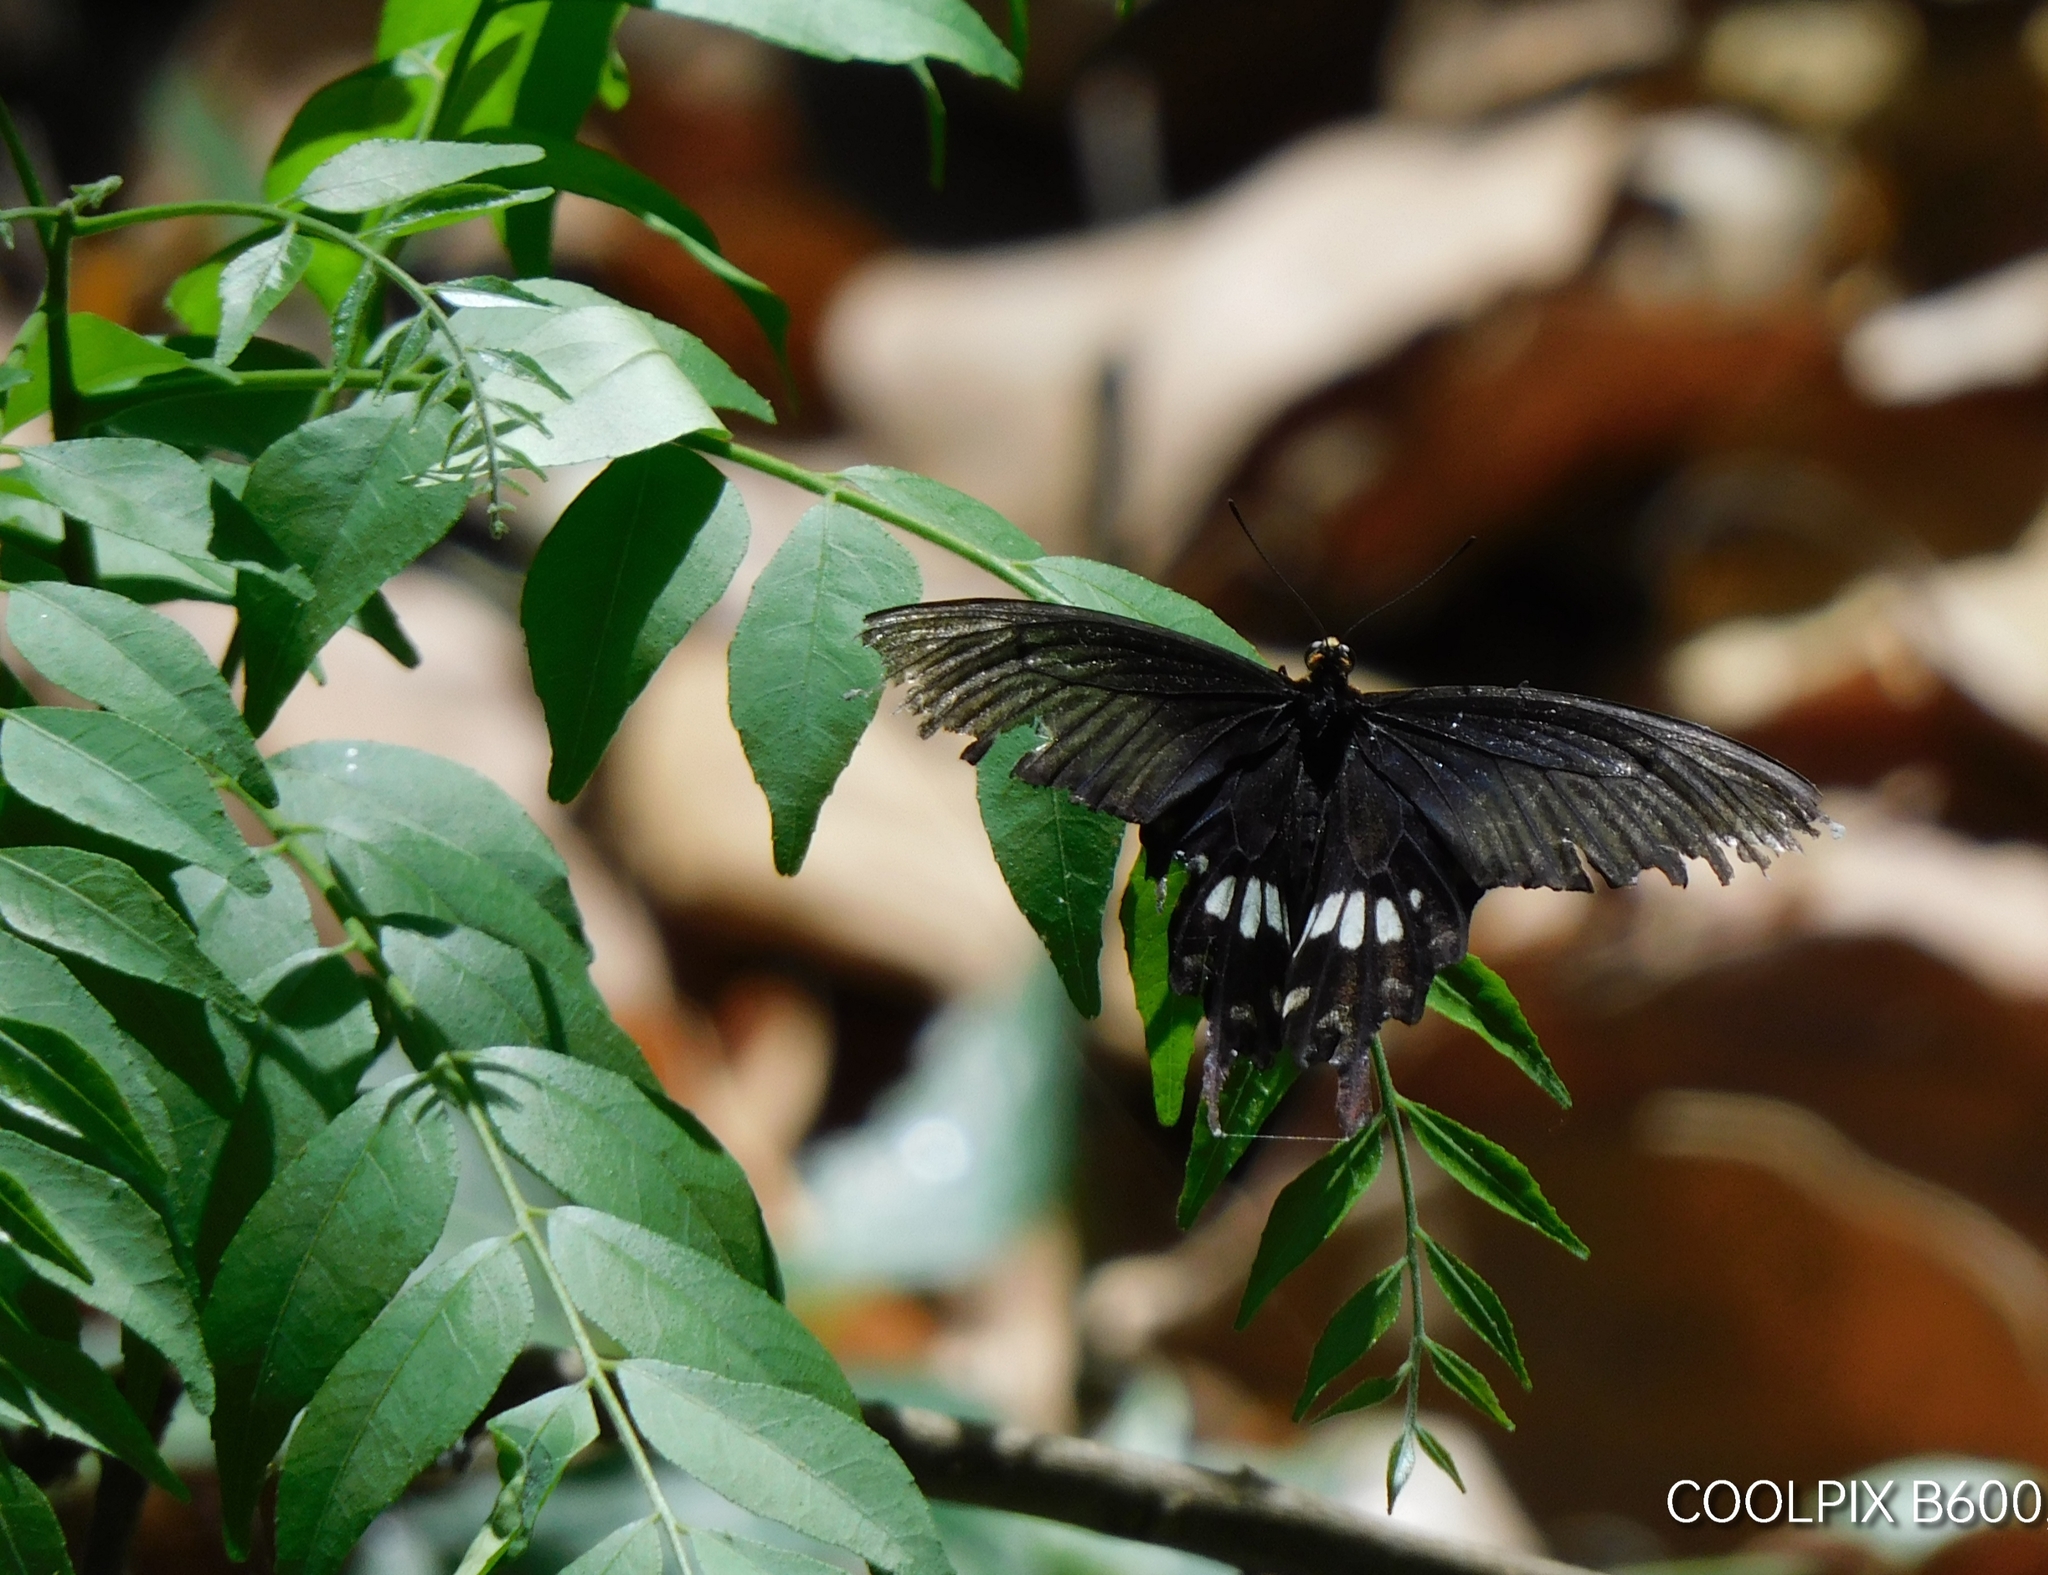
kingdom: Animalia
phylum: Arthropoda
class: Insecta
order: Lepidoptera
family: Papilionidae
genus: Papilio
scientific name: Papilio polytes
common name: Common mormon
